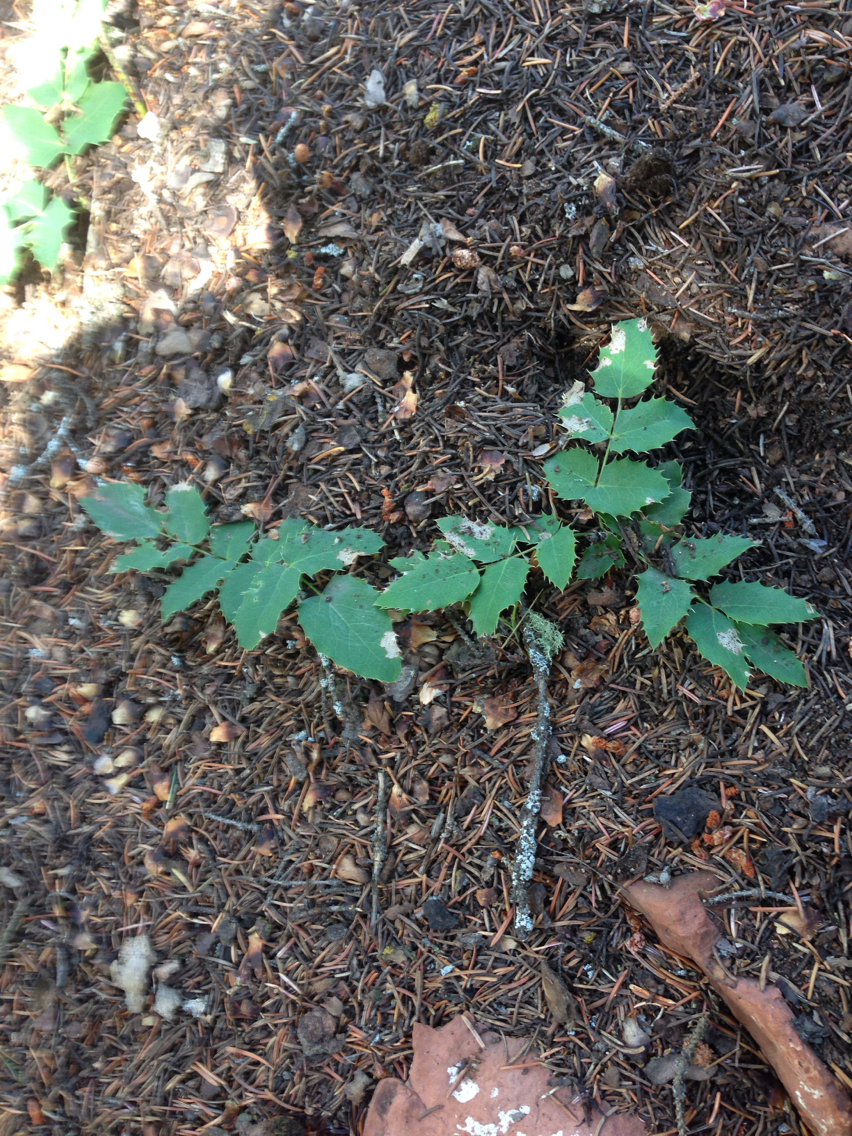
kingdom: Plantae
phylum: Tracheophyta
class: Magnoliopsida
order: Ranunculales
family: Berberidaceae
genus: Mahonia
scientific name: Mahonia repens
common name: Creeping oregon-grape
